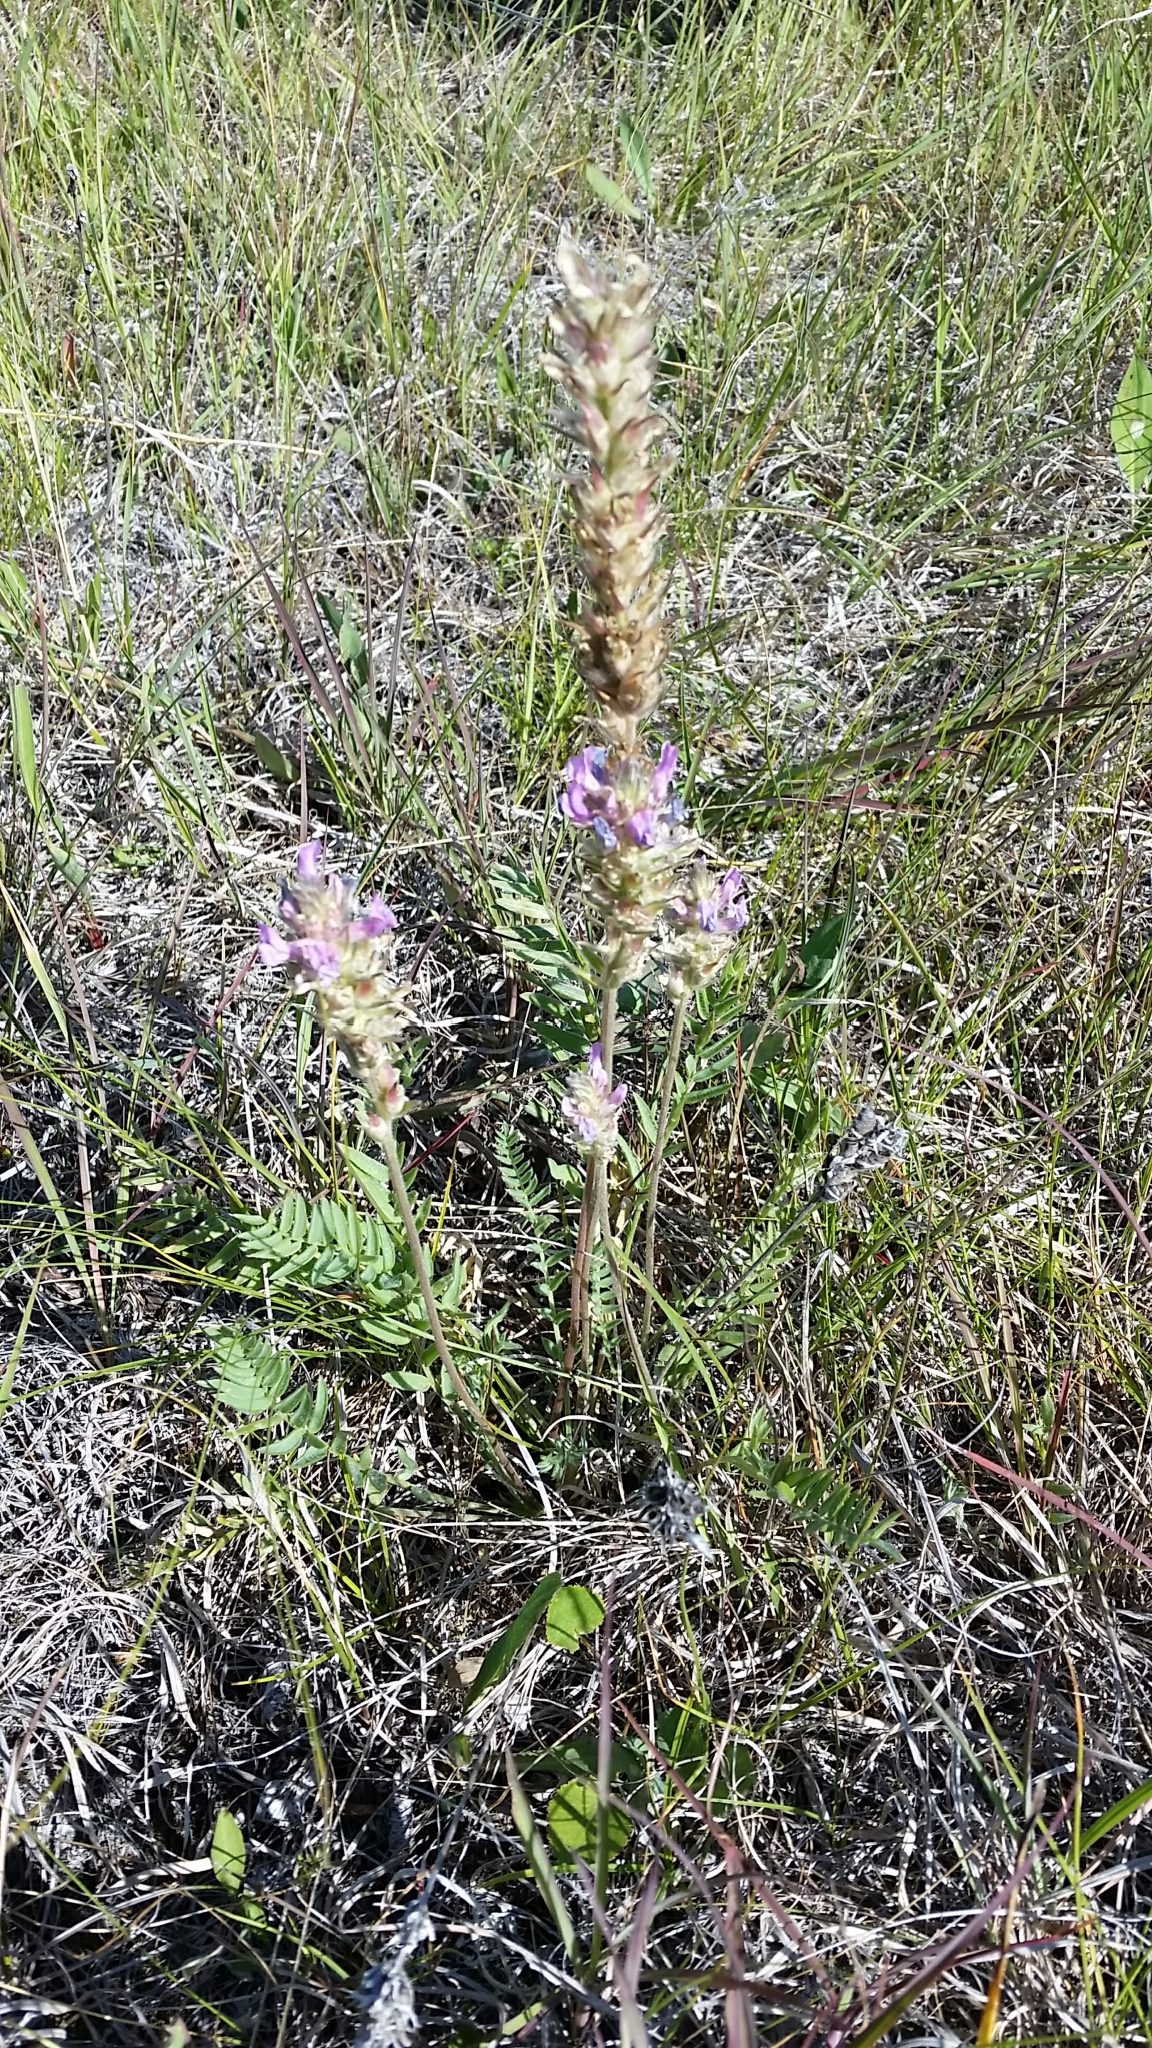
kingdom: Plantae
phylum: Tracheophyta
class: Magnoliopsida
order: Fabales
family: Fabaceae
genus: Oxytropis
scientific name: Oxytropis campestris
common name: Field locoweed
